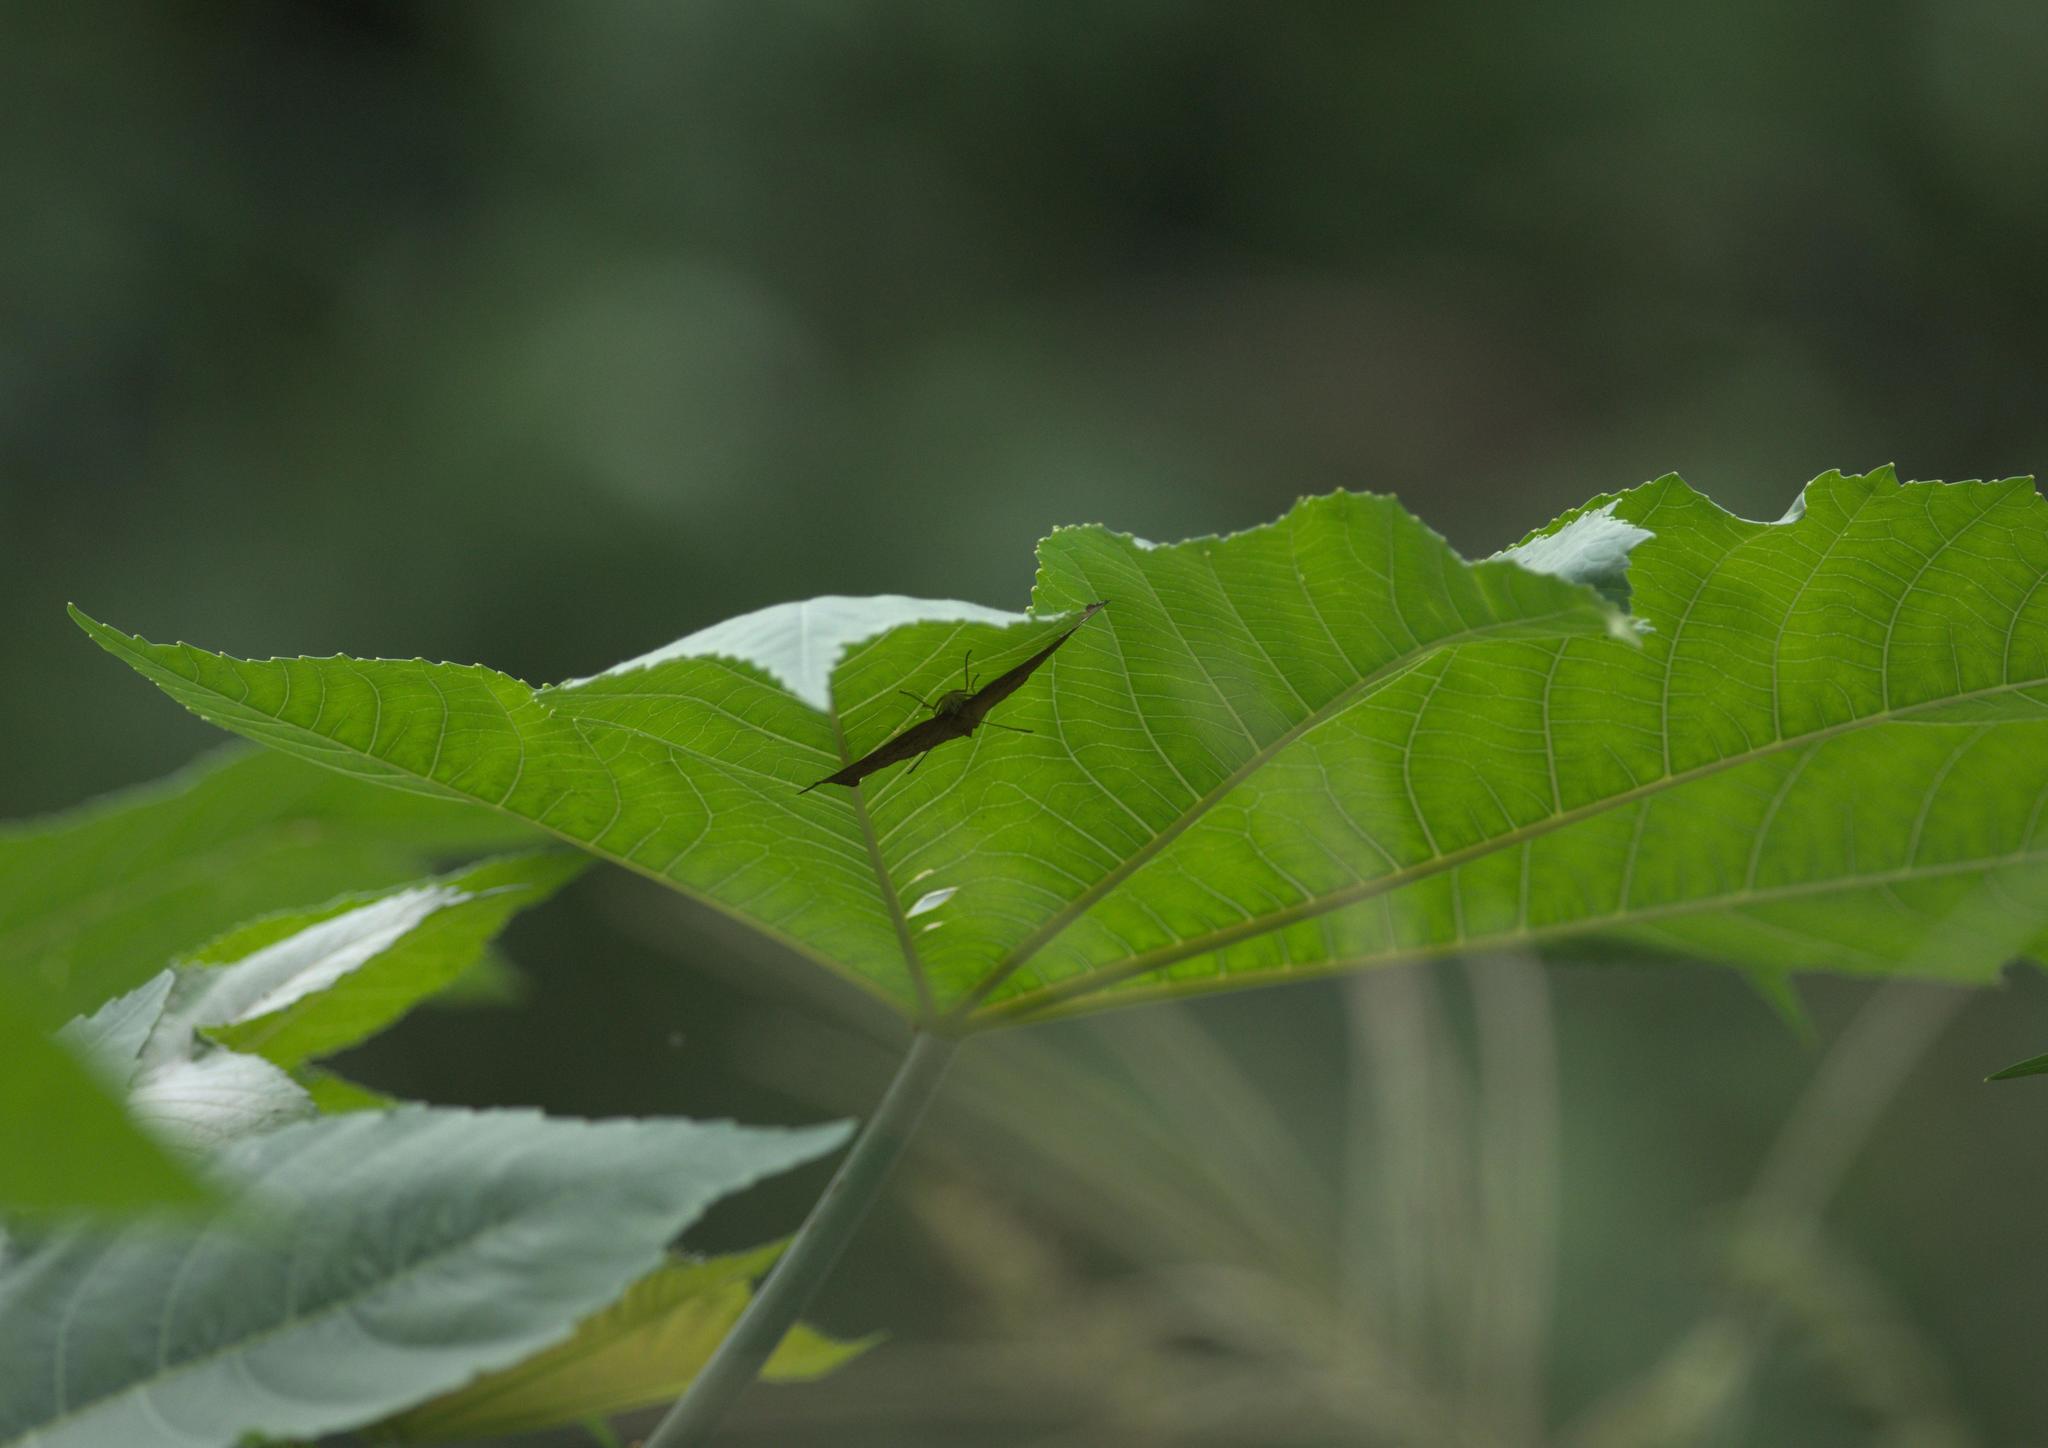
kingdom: Animalia
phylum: Arthropoda
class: Insecta
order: Lepidoptera
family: Nymphalidae
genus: Ariadne
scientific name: Ariadne merione
